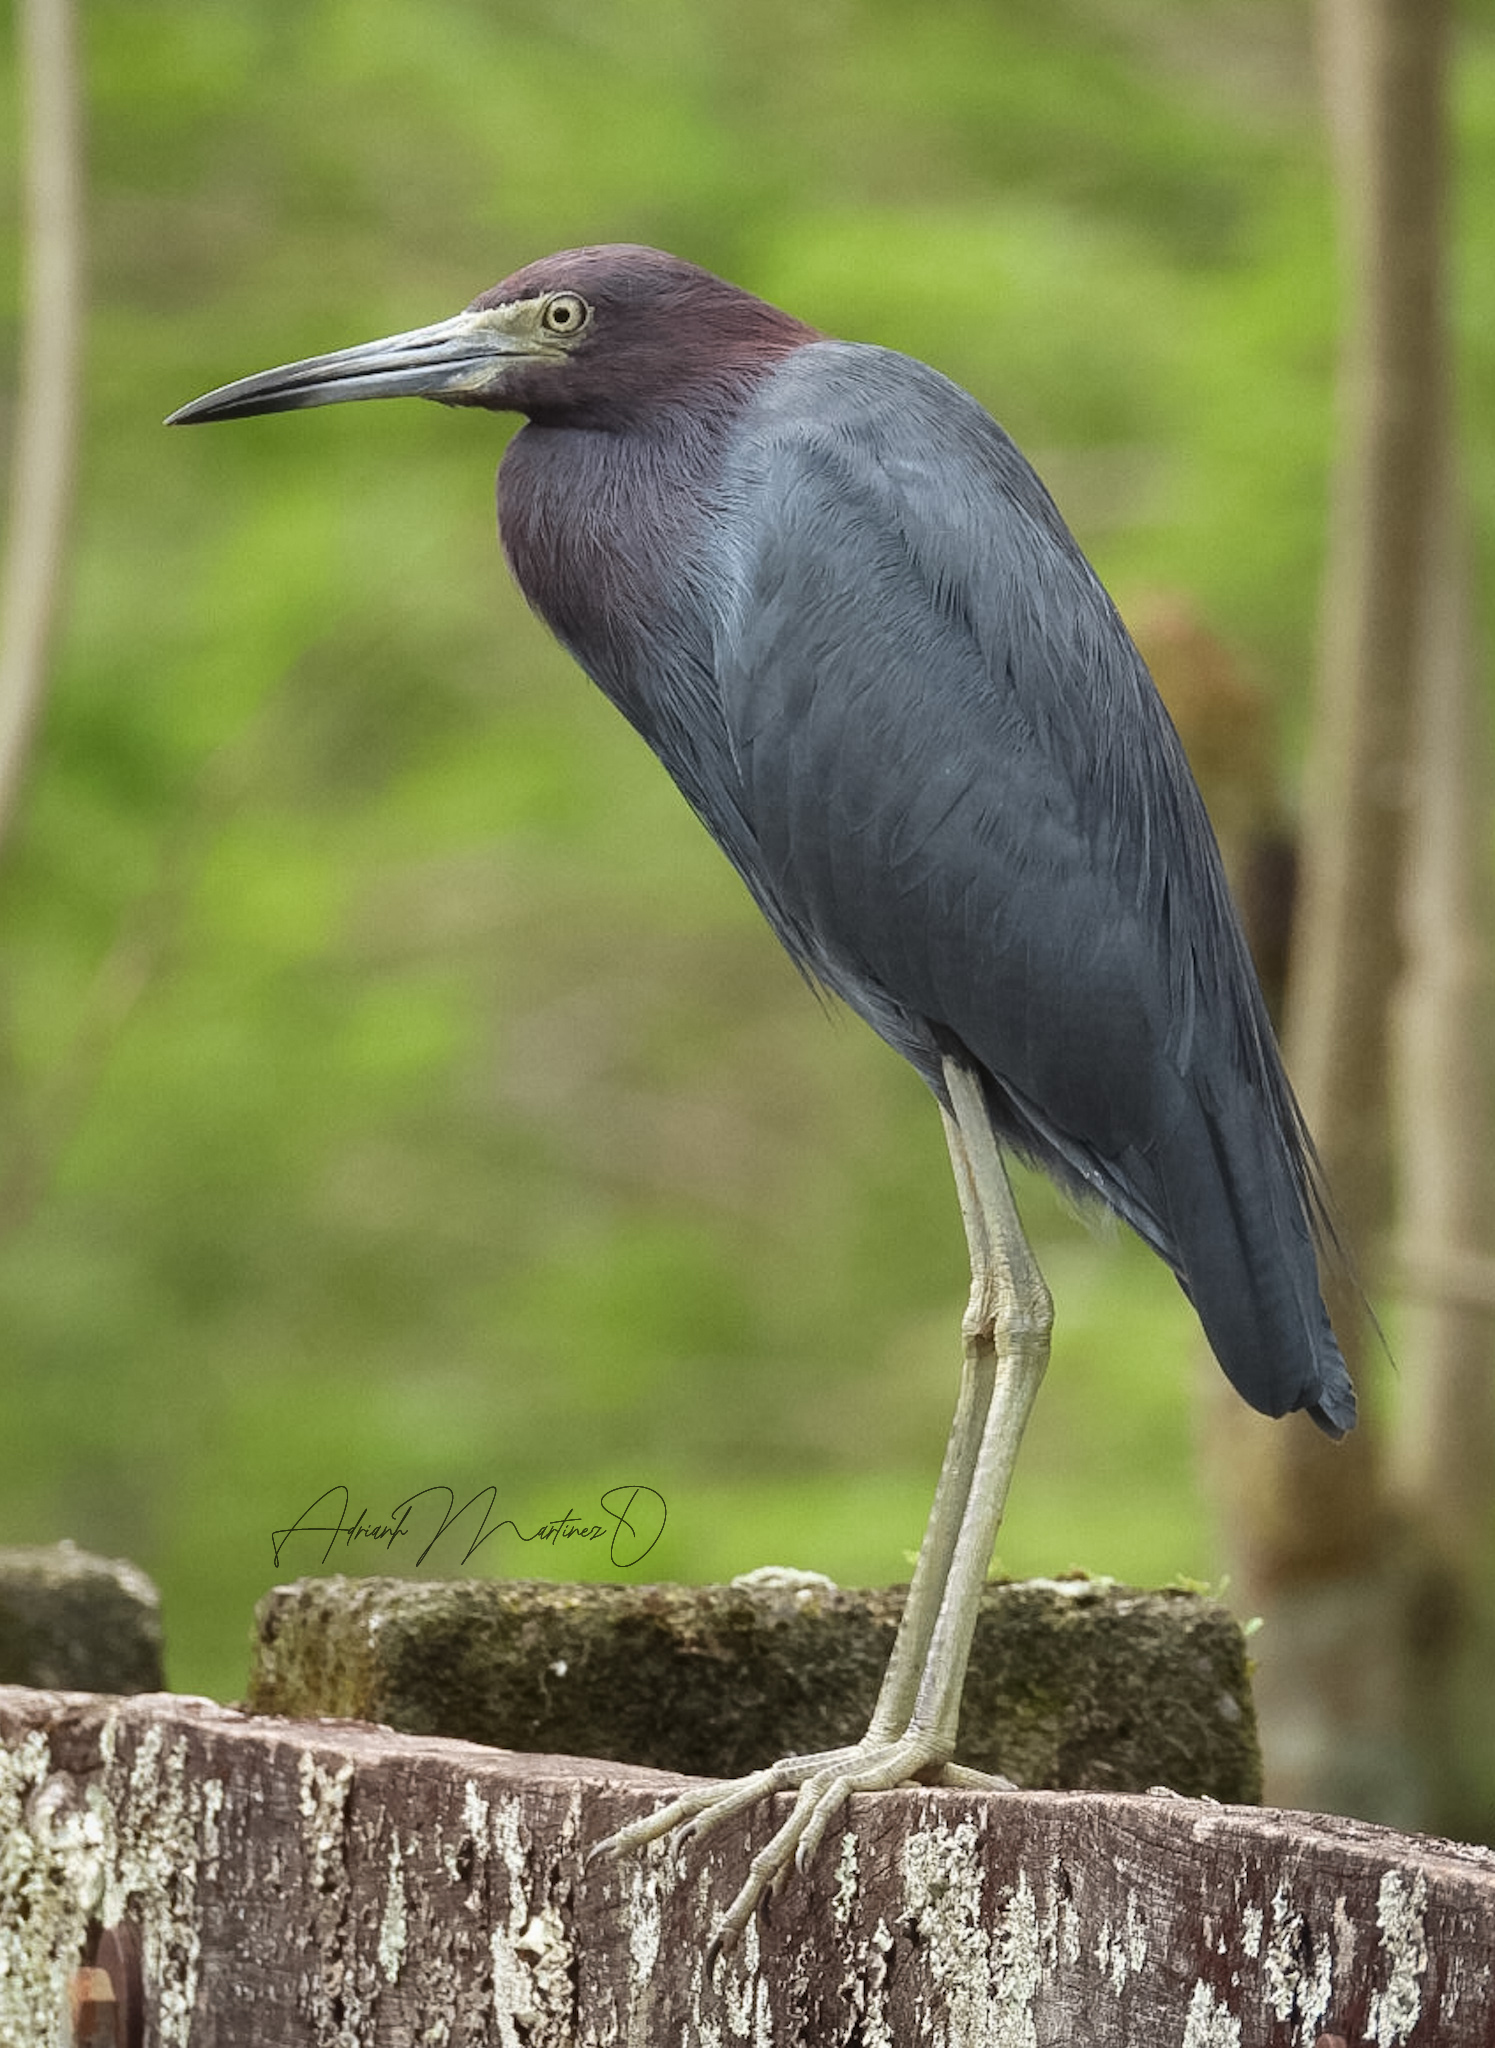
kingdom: Animalia
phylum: Chordata
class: Aves
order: Pelecaniformes
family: Ardeidae
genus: Egretta
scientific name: Egretta caerulea
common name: Little blue heron
